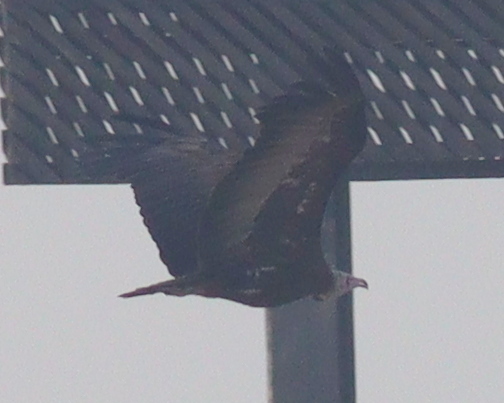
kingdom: Animalia
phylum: Chordata
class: Aves
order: Accipitriformes
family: Accipitridae
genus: Necrosyrtes
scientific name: Necrosyrtes monachus
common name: Hooded vulture
